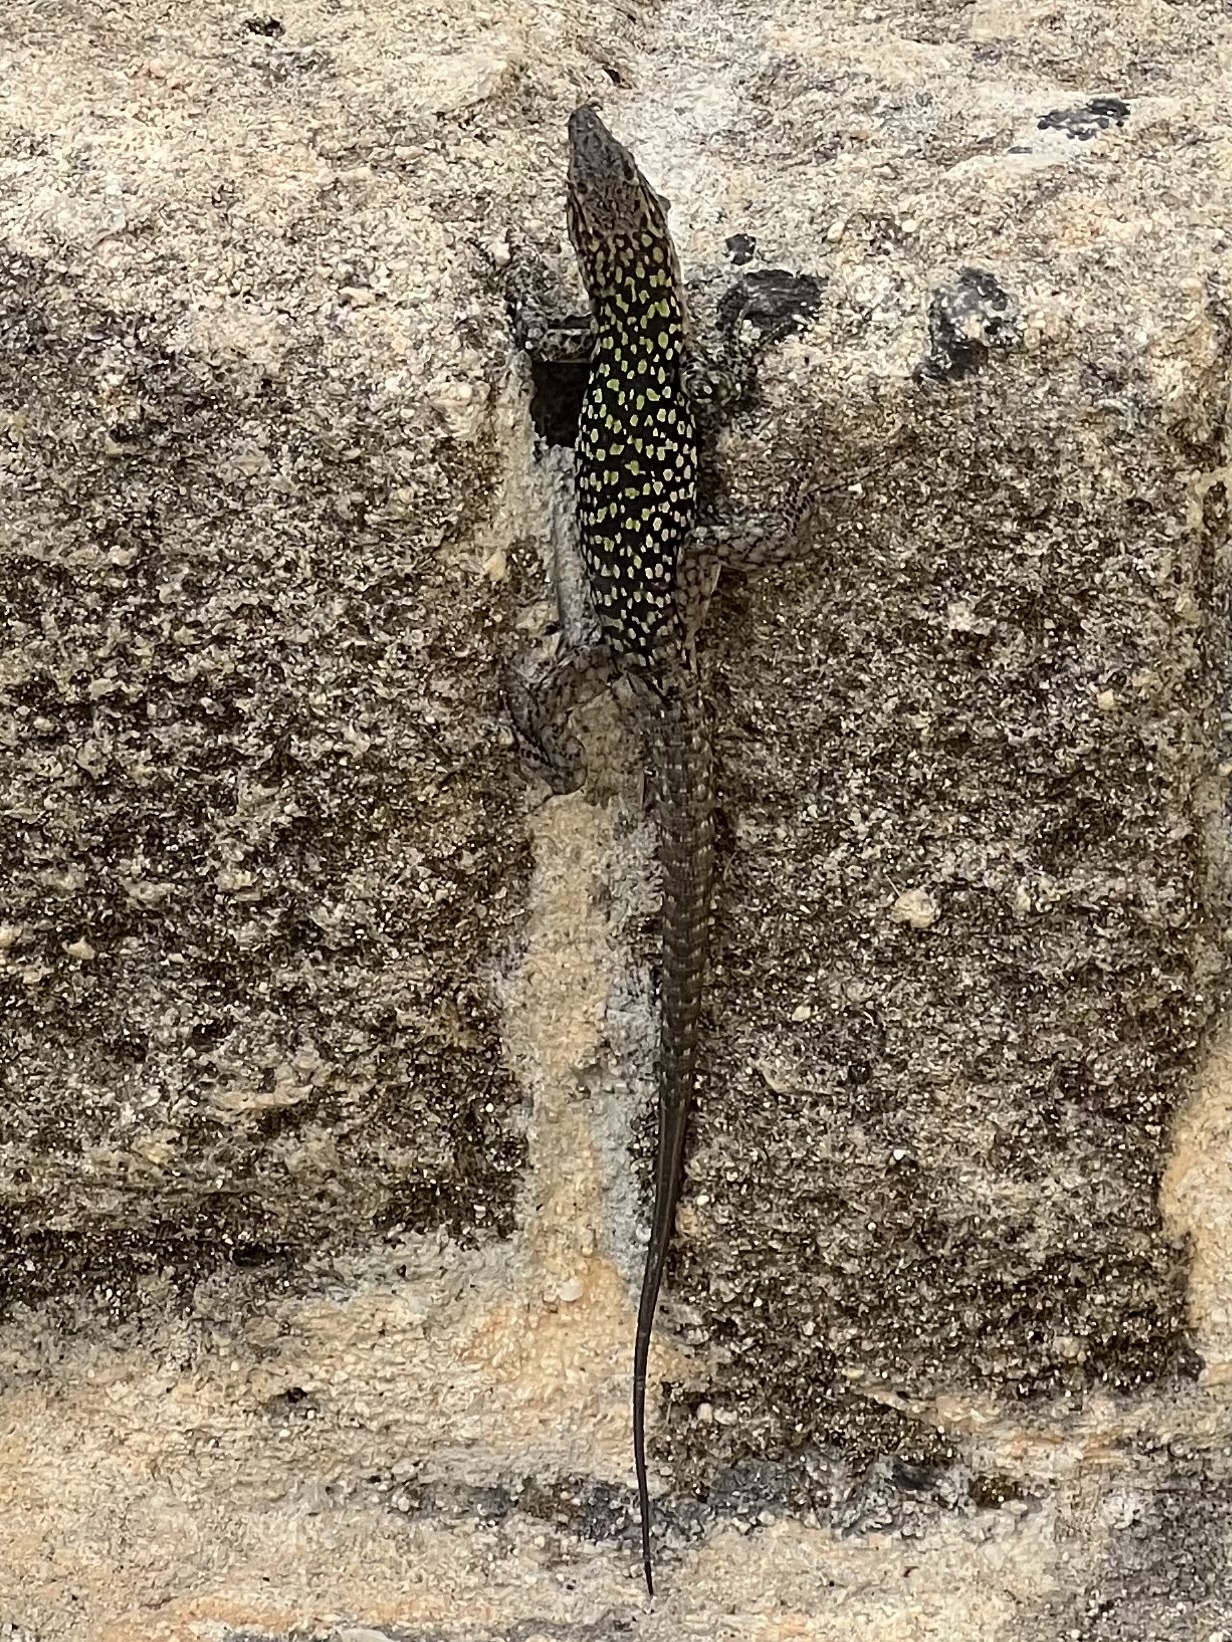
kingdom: Animalia
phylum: Chordata
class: Squamata
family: Lacertidae
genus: Podarcis
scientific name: Podarcis siculus
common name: Italian wall lizard
